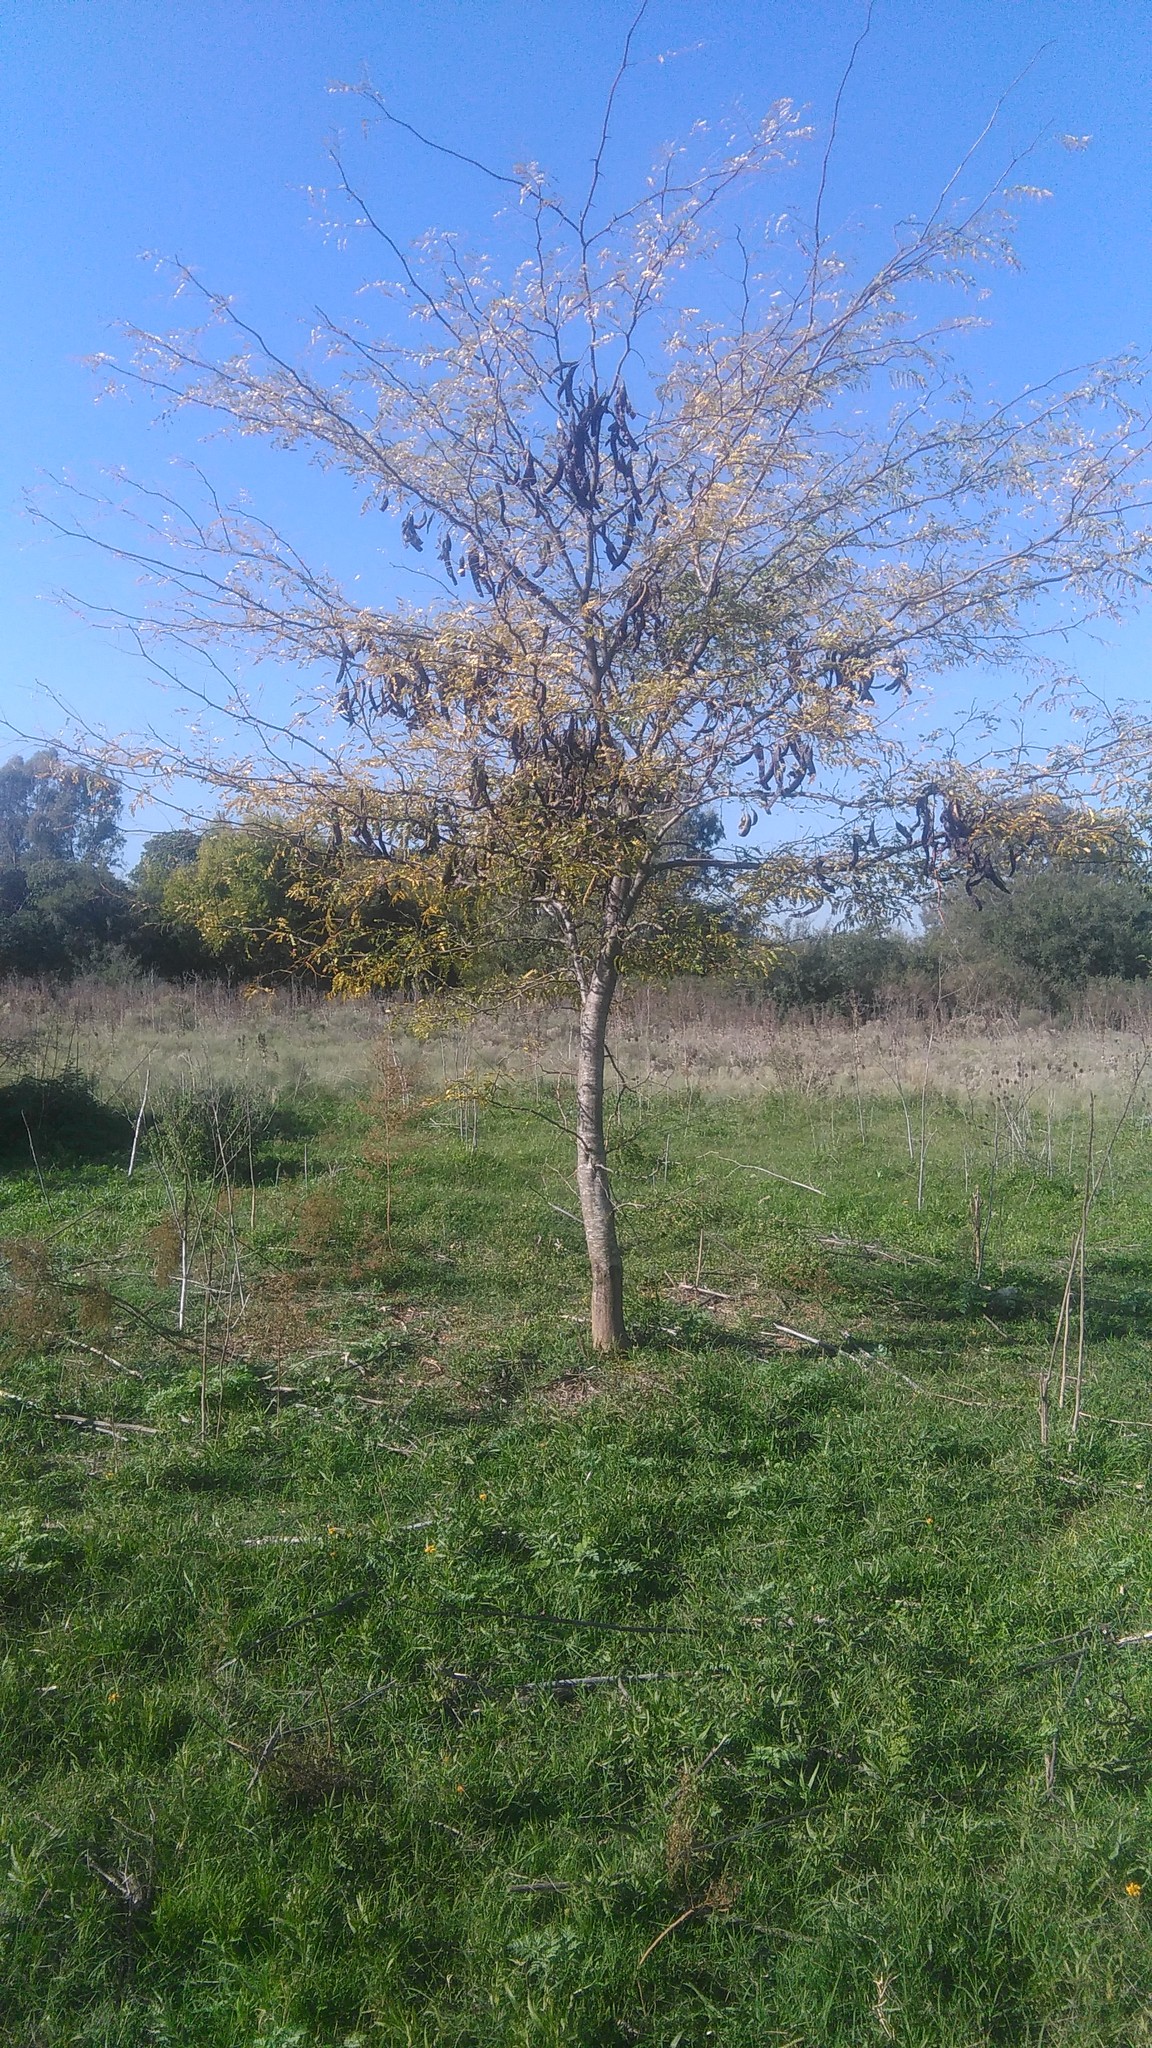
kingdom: Plantae
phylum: Tracheophyta
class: Magnoliopsida
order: Fabales
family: Fabaceae
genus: Gleditsia
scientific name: Gleditsia triacanthos
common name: Common honeylocust
